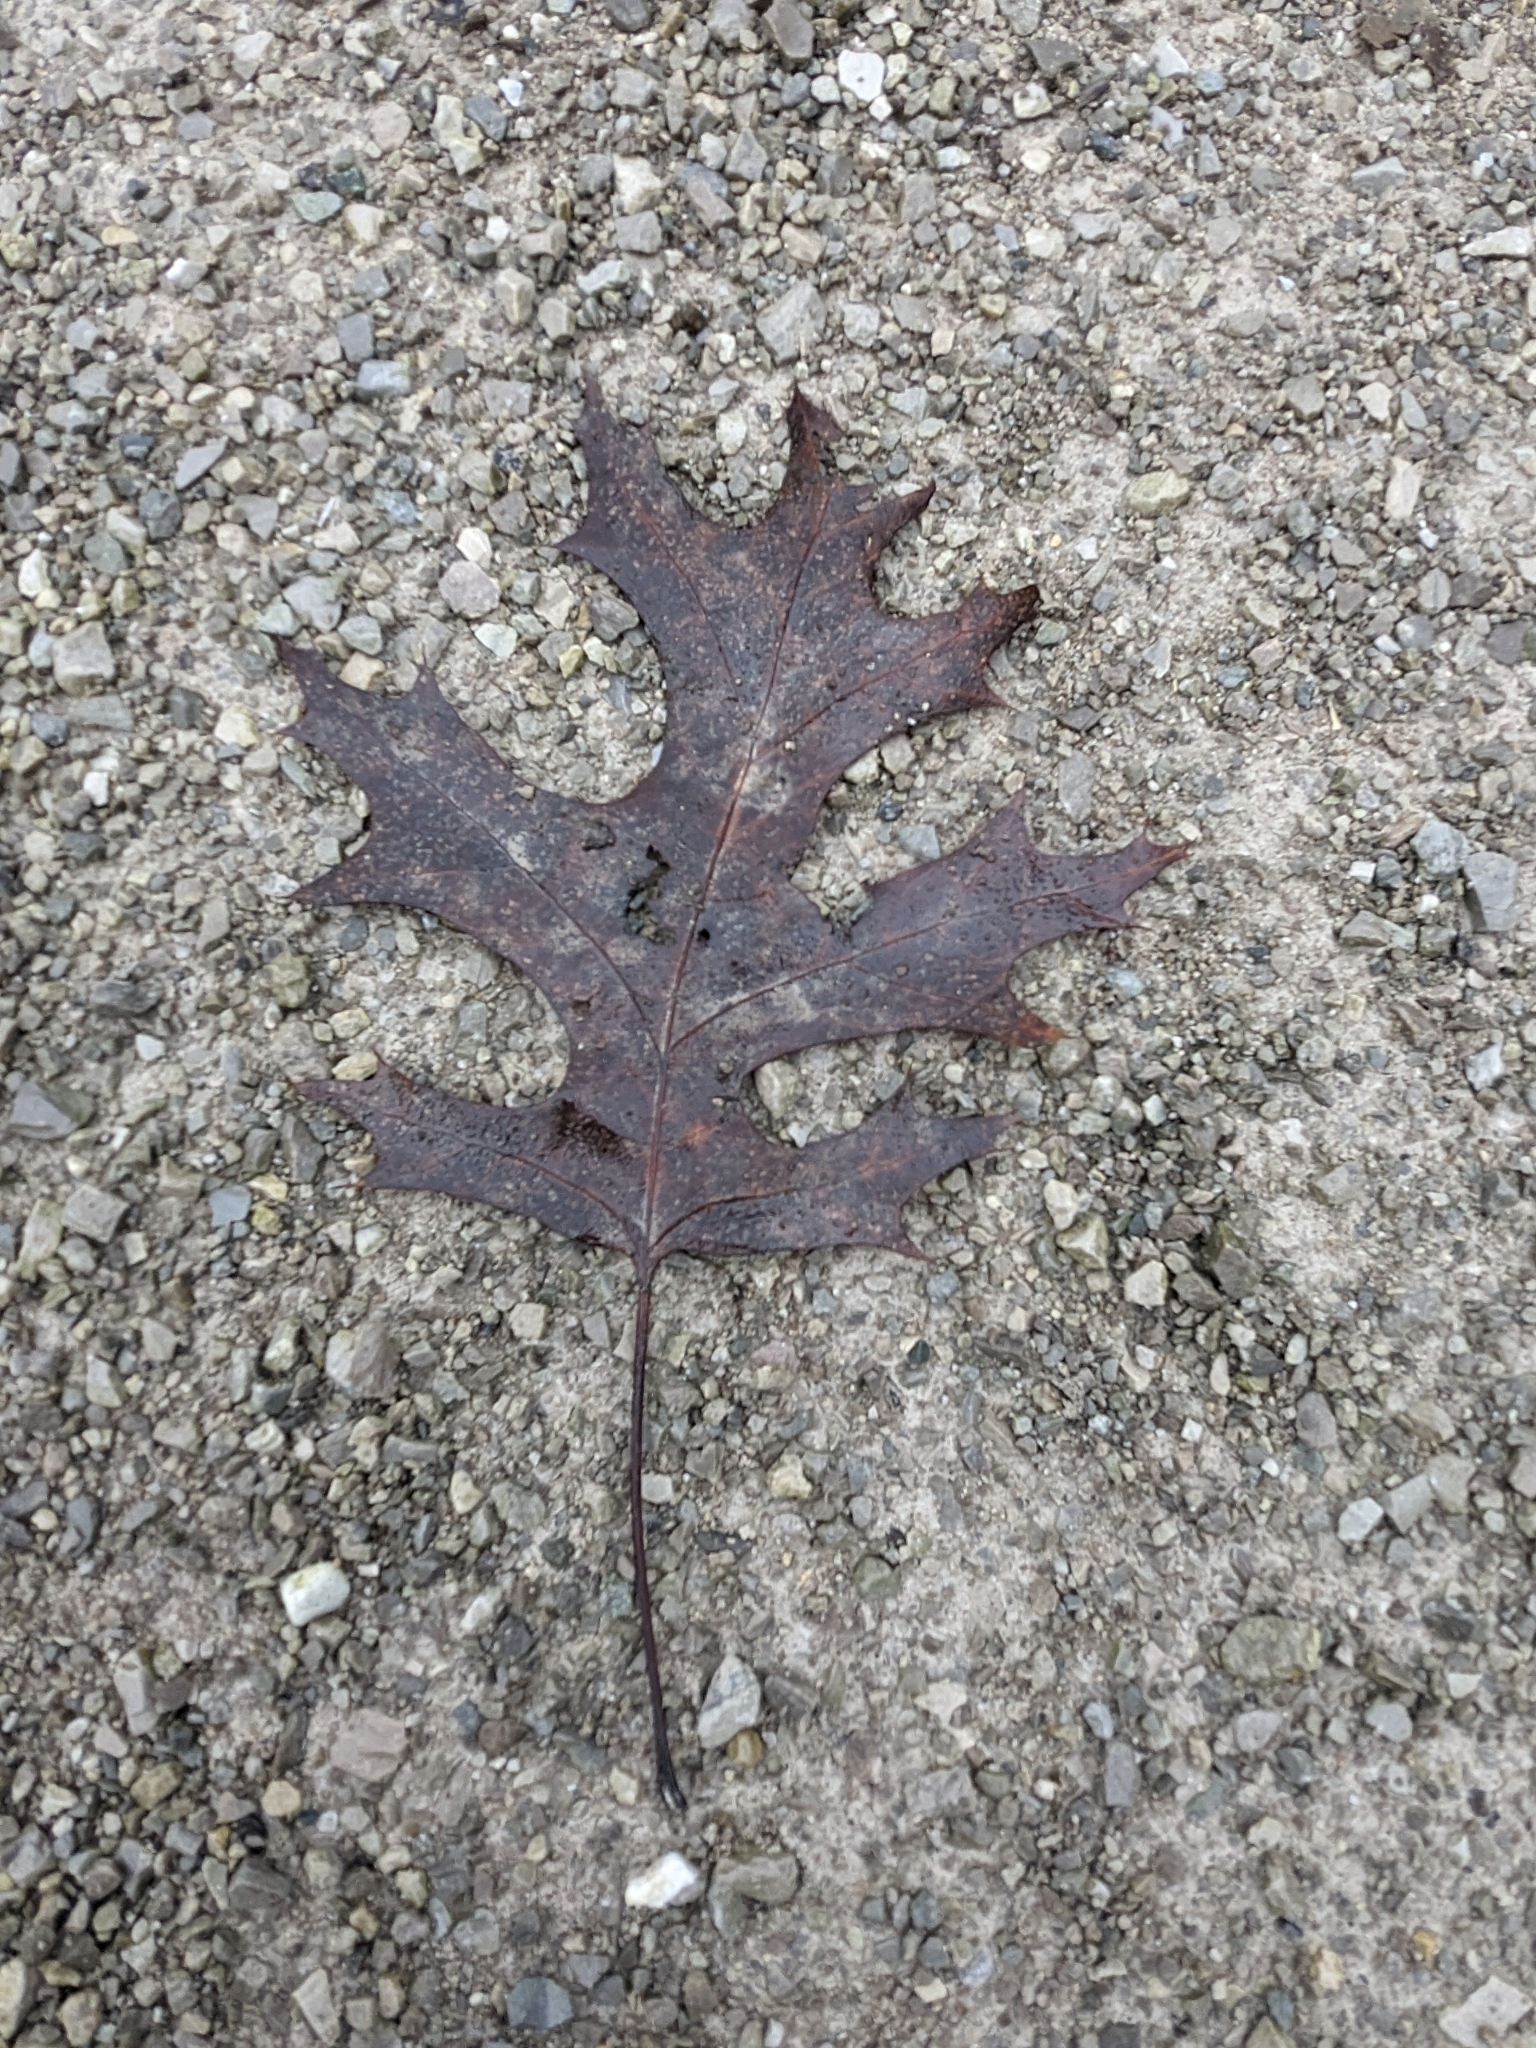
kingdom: Plantae
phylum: Tracheophyta
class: Magnoliopsida
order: Fagales
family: Fagaceae
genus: Quercus
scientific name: Quercus coccinea
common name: Scarlet oak
